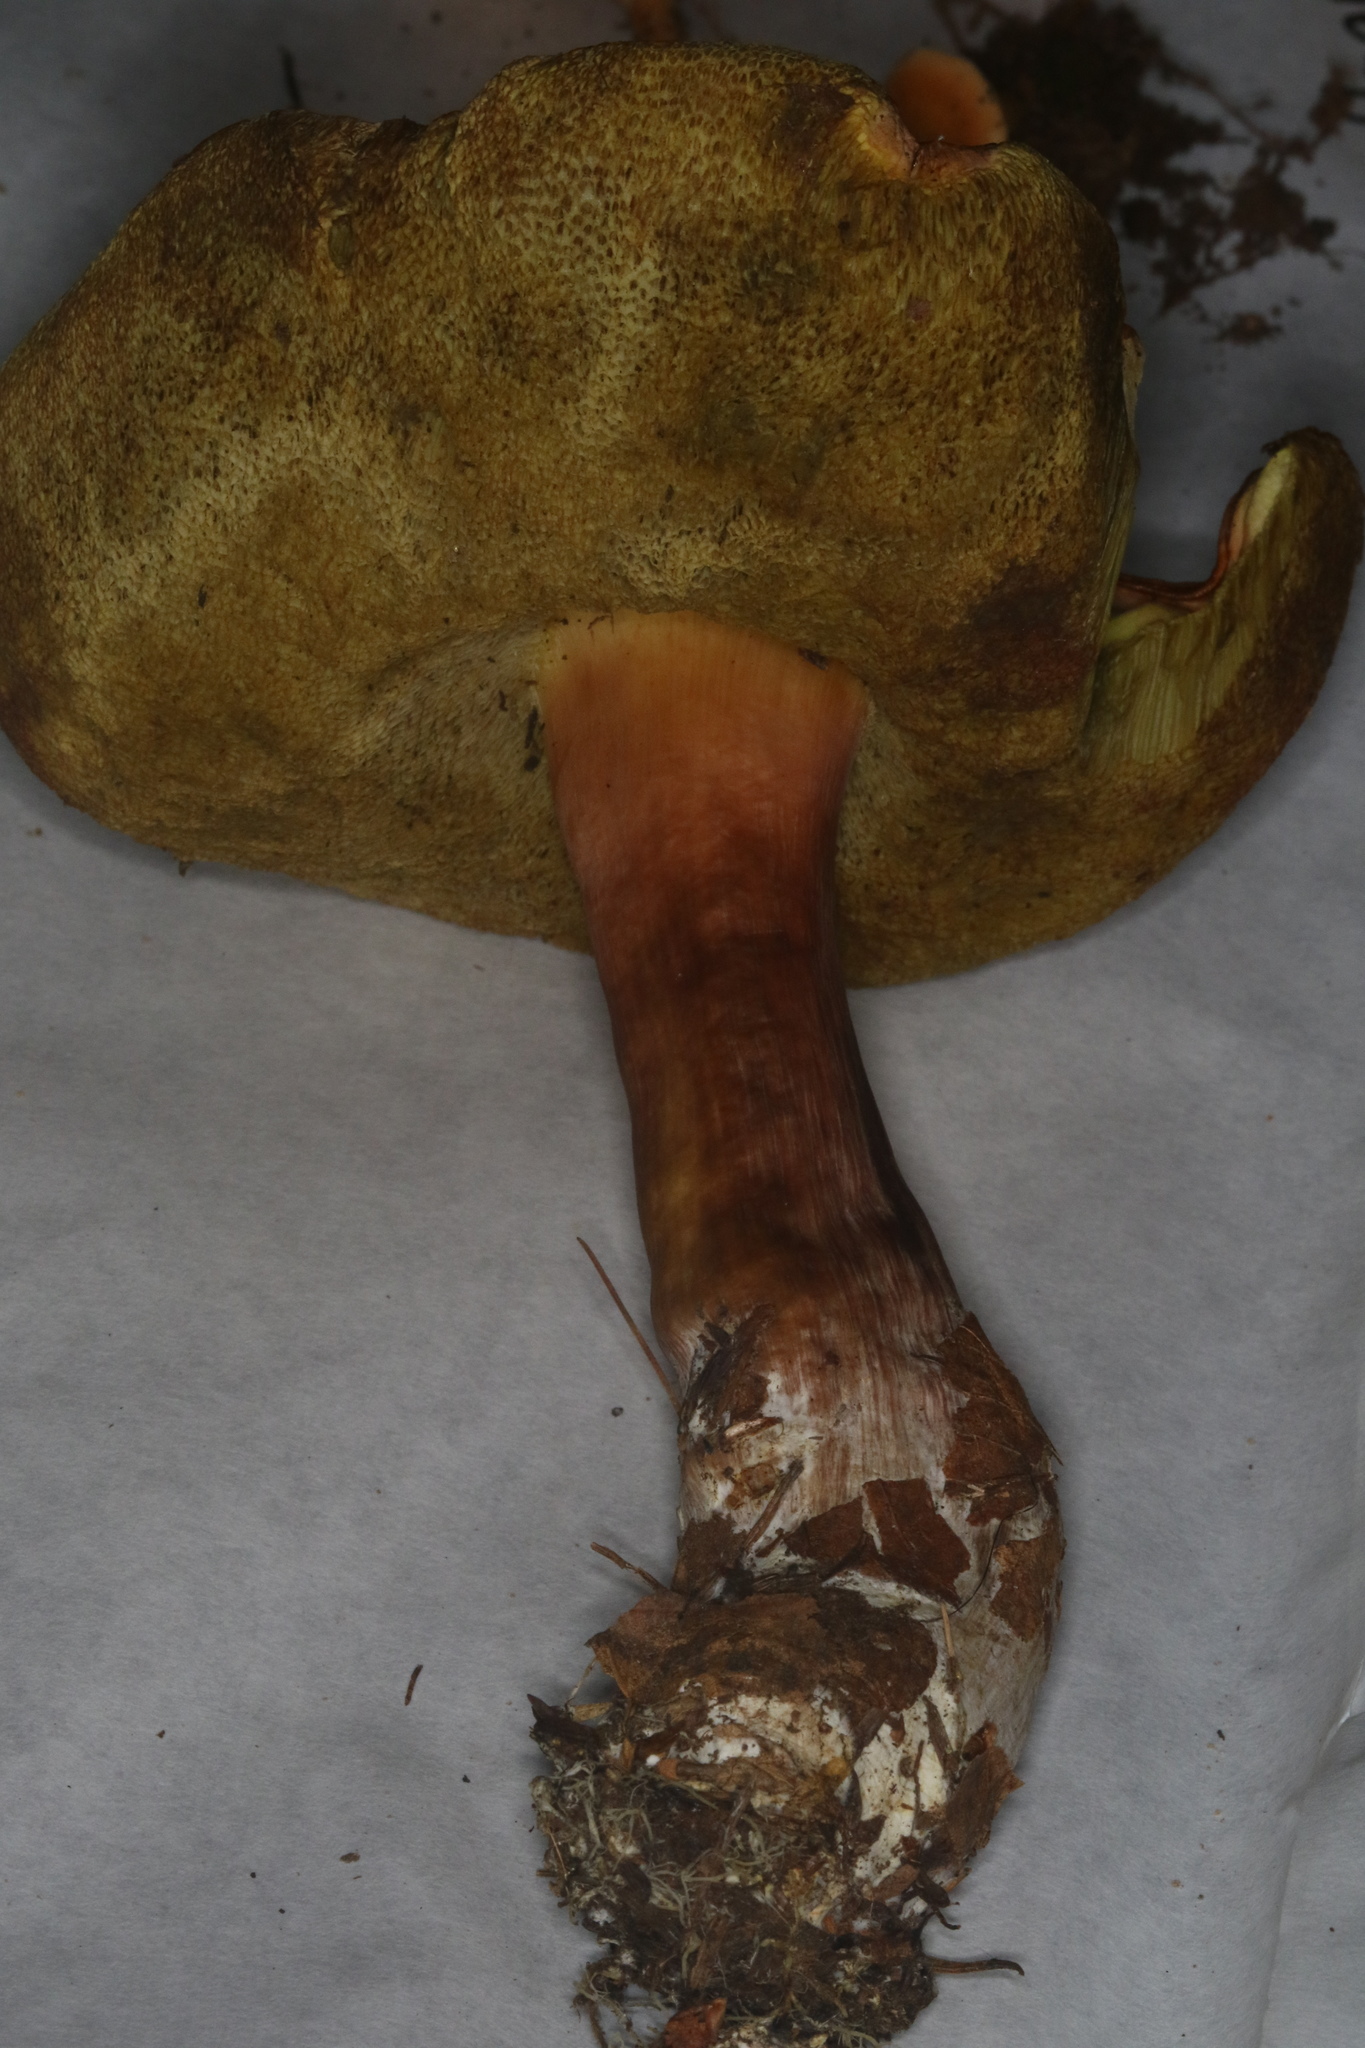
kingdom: Fungi
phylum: Basidiomycota
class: Agaricomycetes
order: Boletales
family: Boletaceae
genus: Xanthoconium
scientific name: Xanthoconium purpureum
